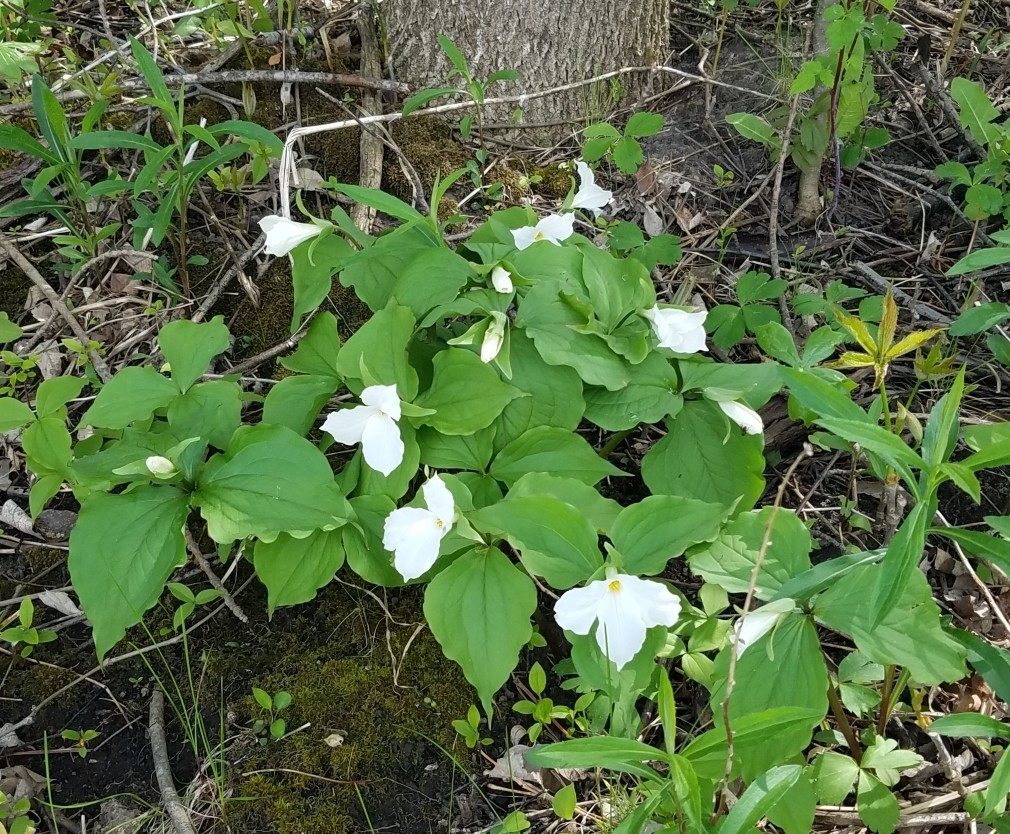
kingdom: Plantae
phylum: Tracheophyta
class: Liliopsida
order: Liliales
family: Melanthiaceae
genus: Trillium
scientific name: Trillium grandiflorum
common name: Great white trillium
